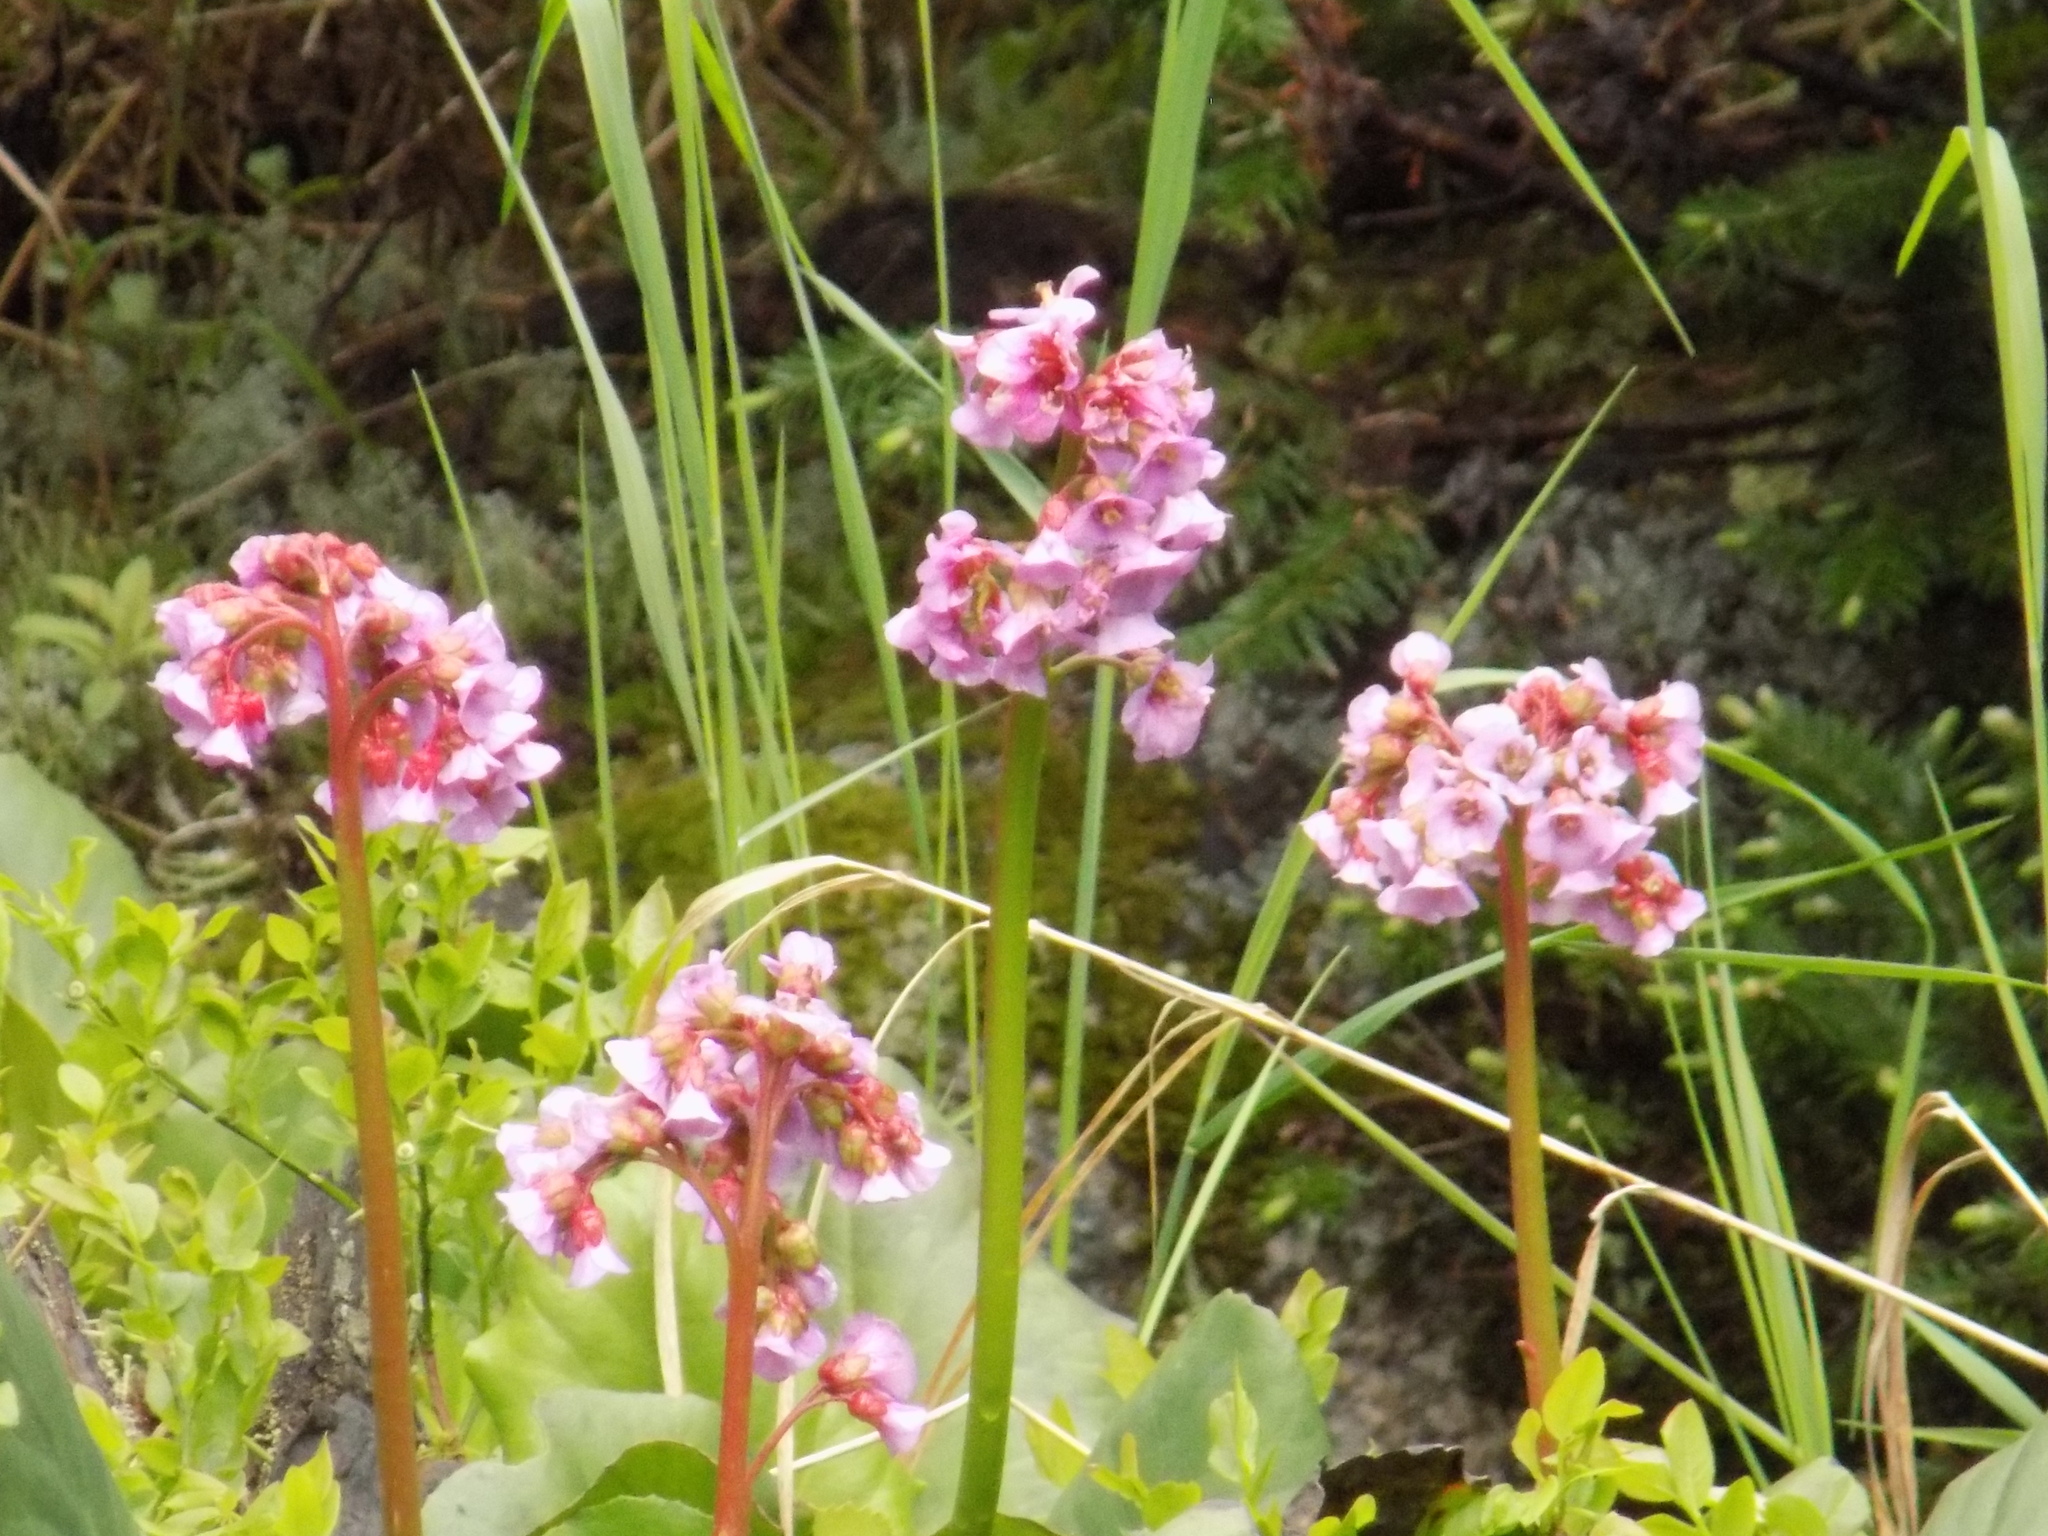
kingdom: Plantae
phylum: Tracheophyta
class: Magnoliopsida
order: Saxifragales
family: Saxifragaceae
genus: Bergenia
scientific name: Bergenia crassifolia
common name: Elephant-ears
